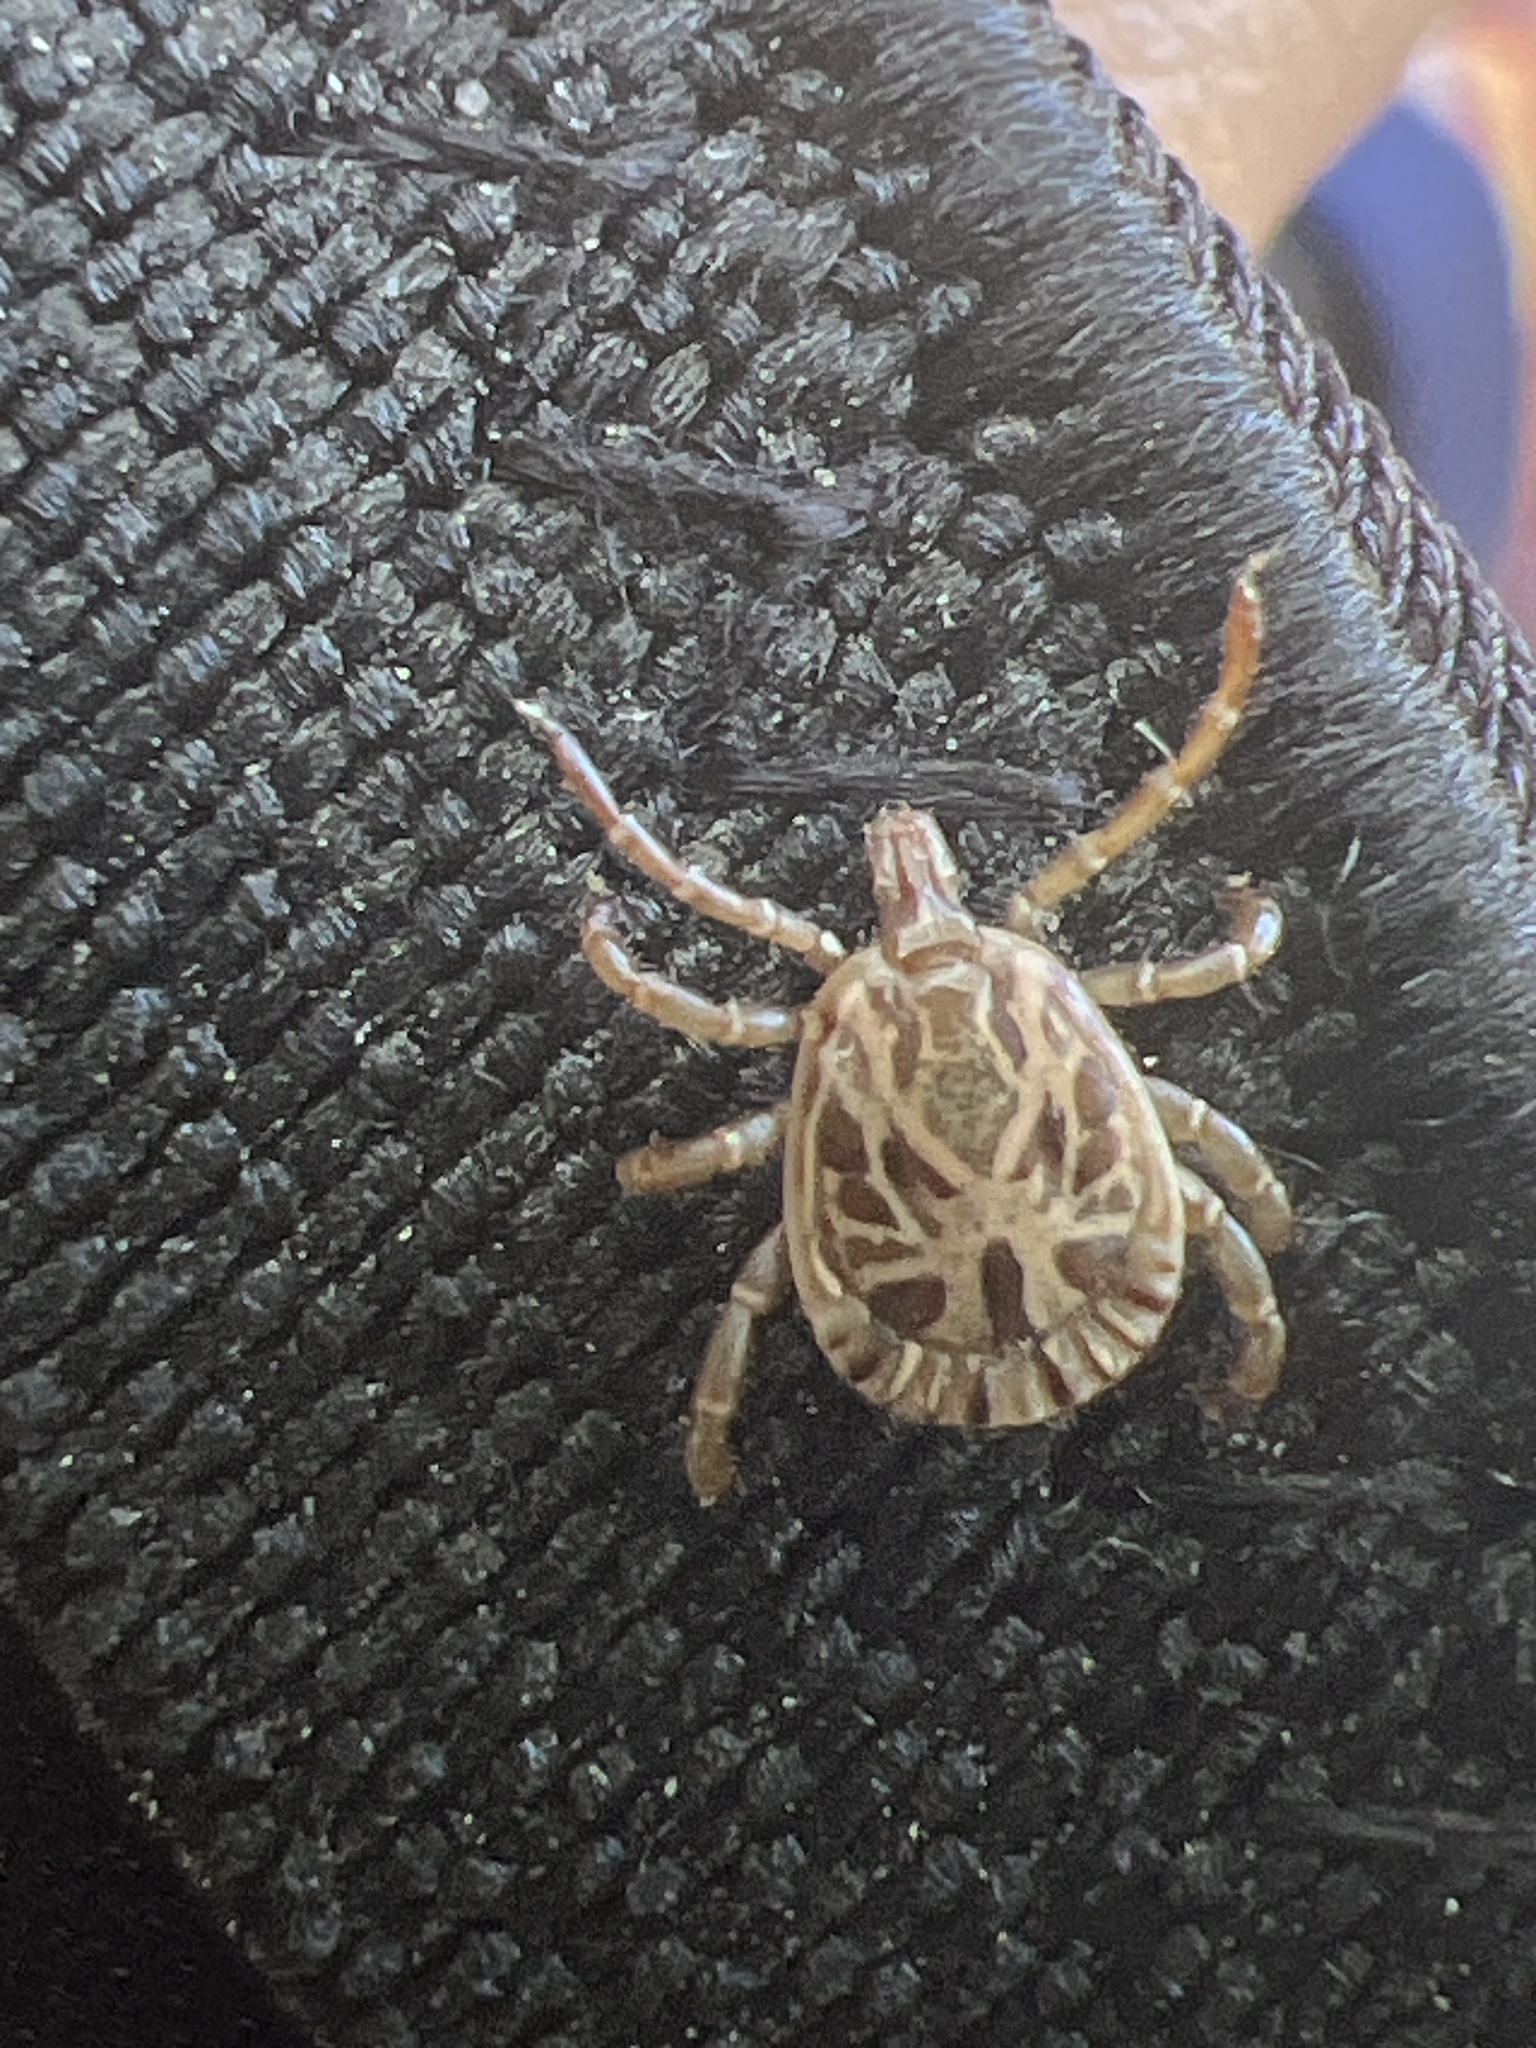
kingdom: Animalia
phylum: Arthropoda
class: Arachnida
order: Ixodida
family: Ixodidae
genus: Amblyomma
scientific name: Amblyomma cajennense
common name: Cayenne tick
